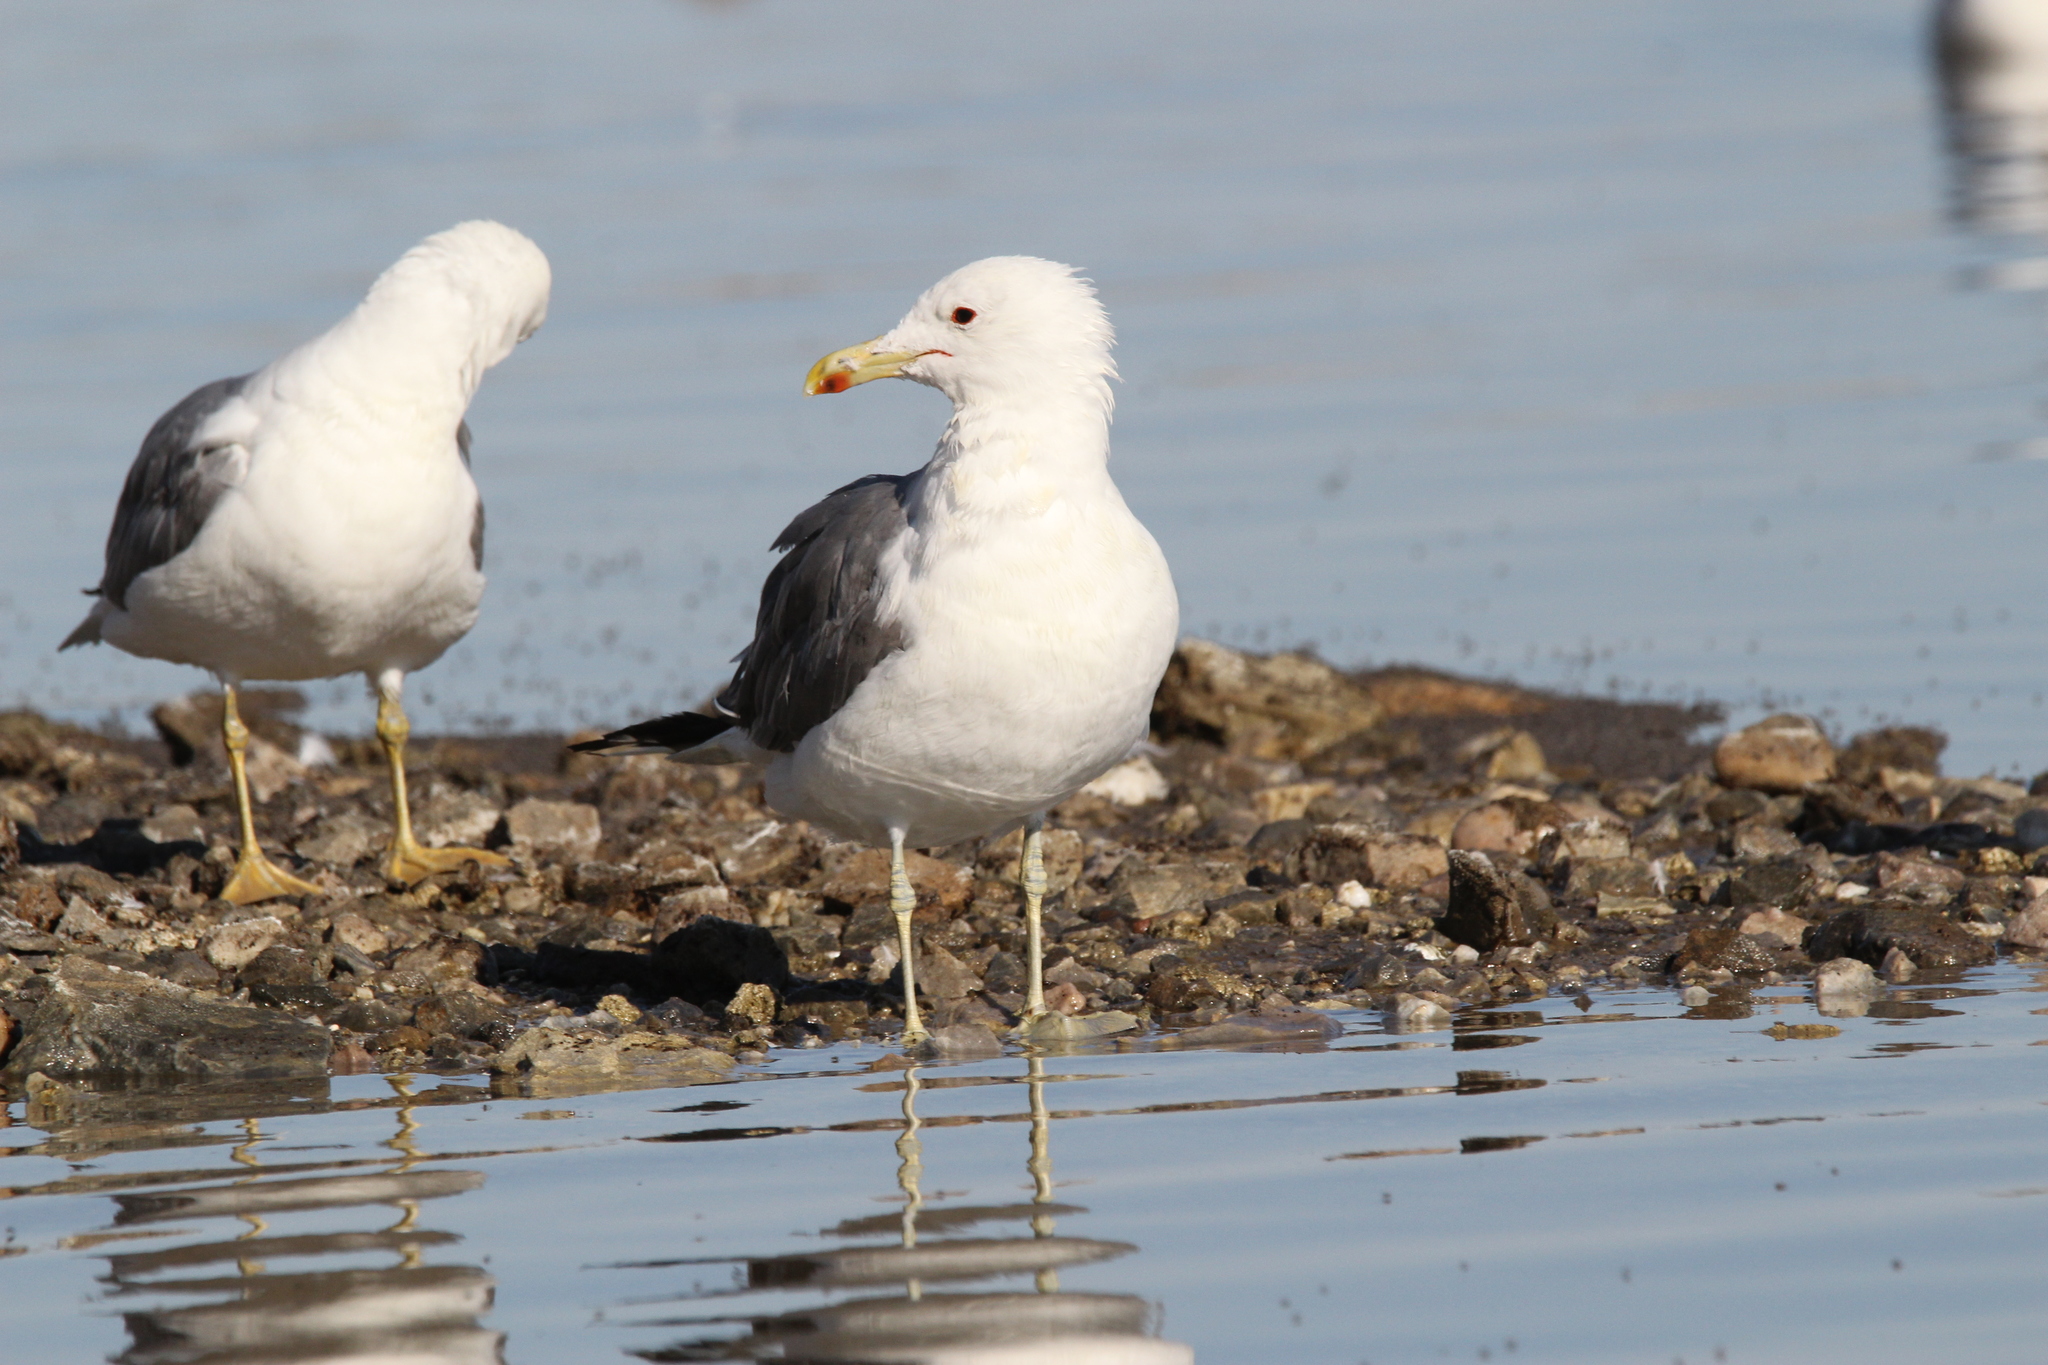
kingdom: Animalia
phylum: Chordata
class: Aves
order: Charadriiformes
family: Laridae
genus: Larus
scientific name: Larus californicus
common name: California gull
